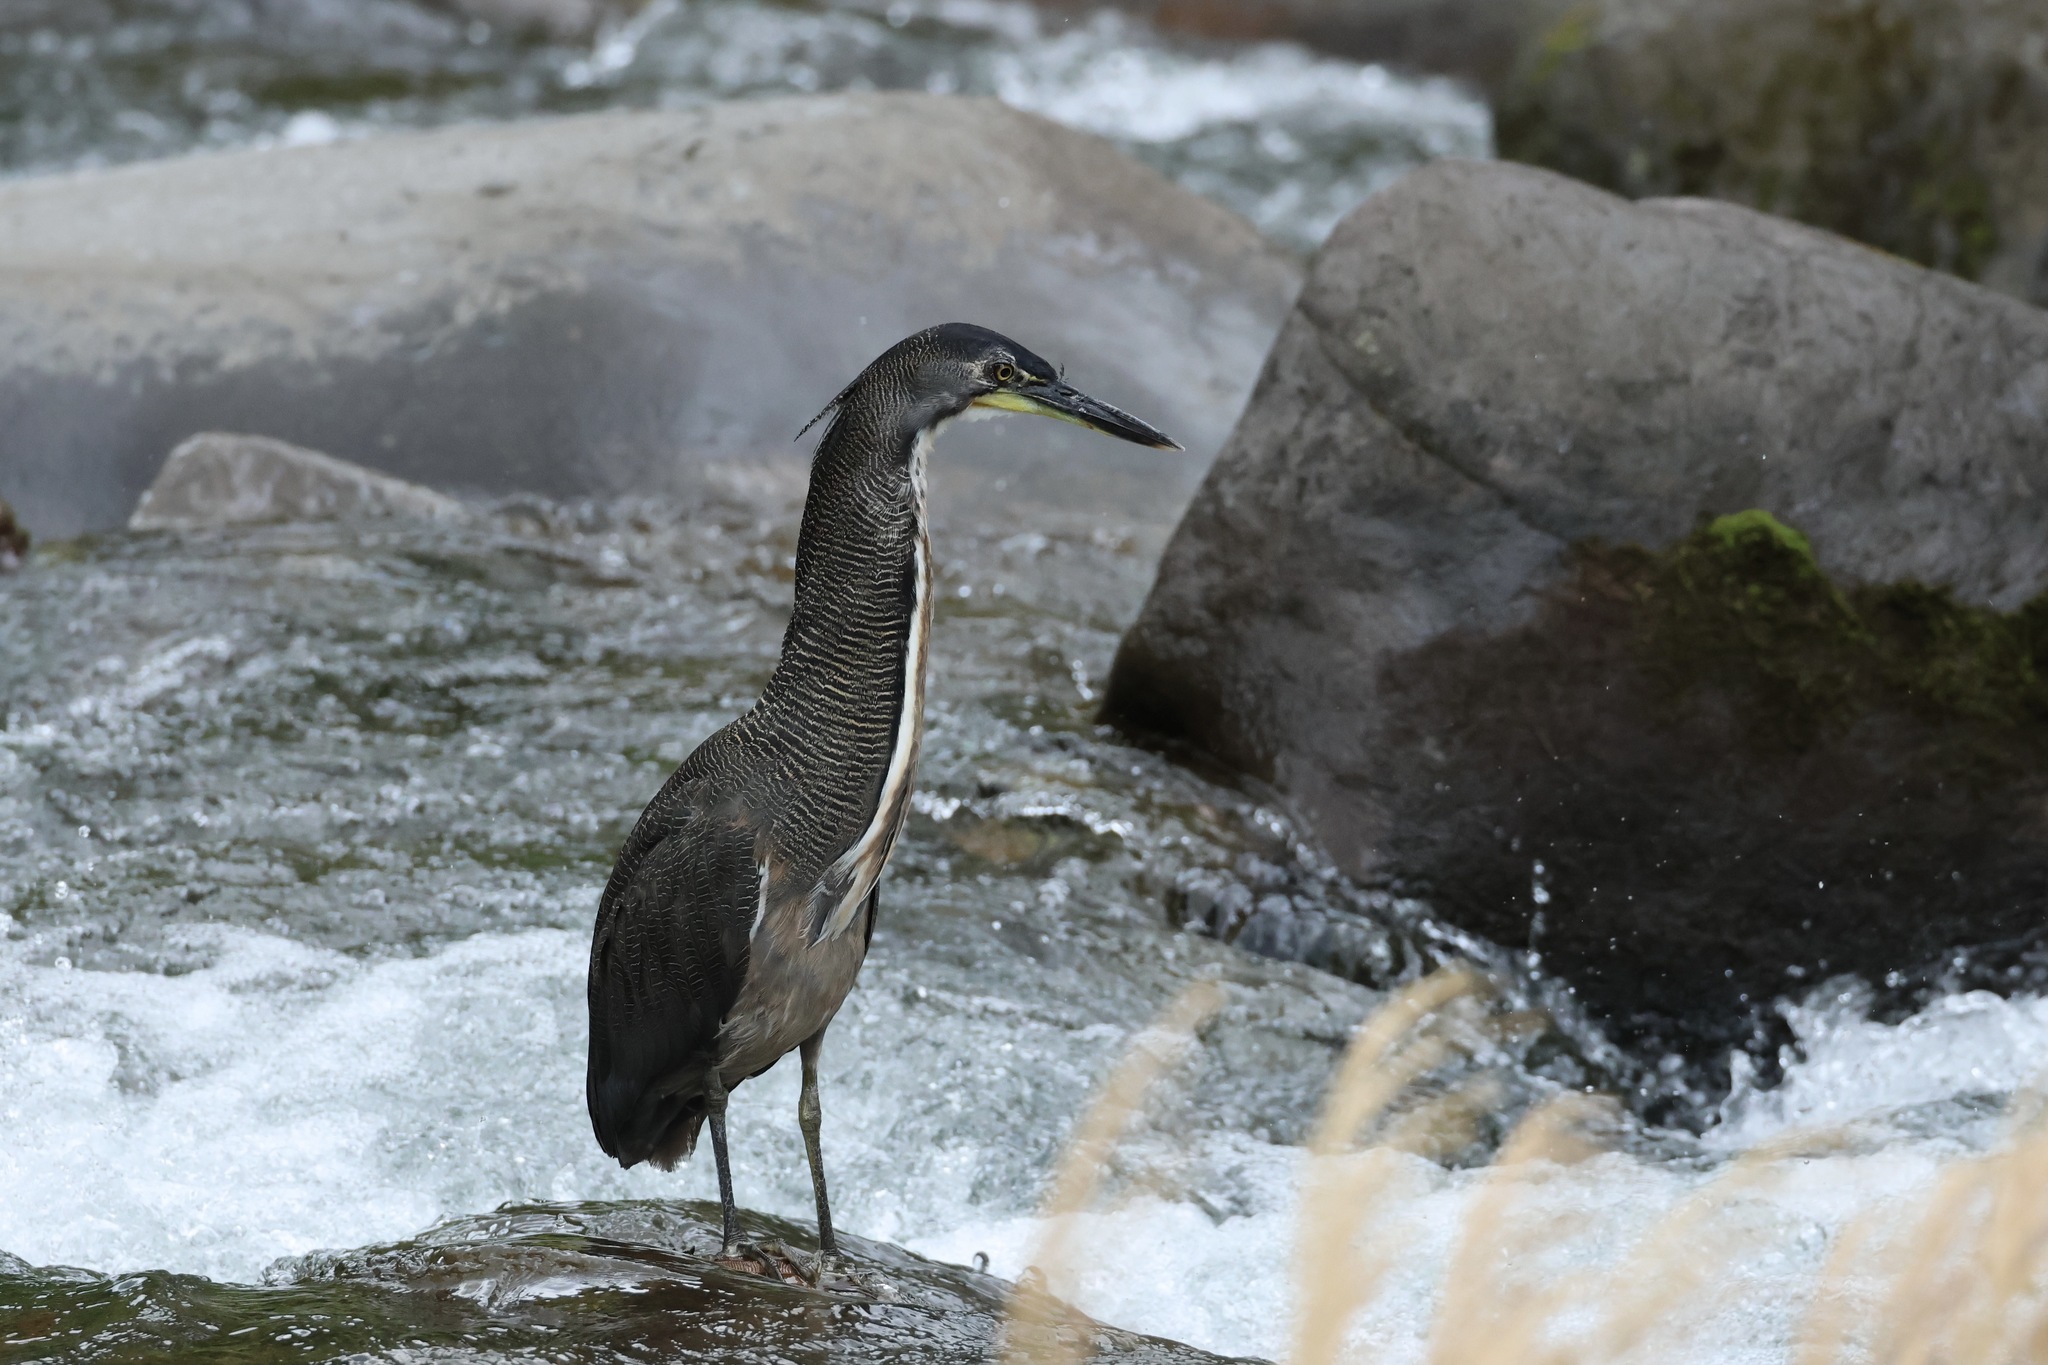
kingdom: Animalia
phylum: Chordata
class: Aves
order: Pelecaniformes
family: Ardeidae
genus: Tigrisoma
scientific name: Tigrisoma fasciatum
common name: Fasciated tiger-heron
